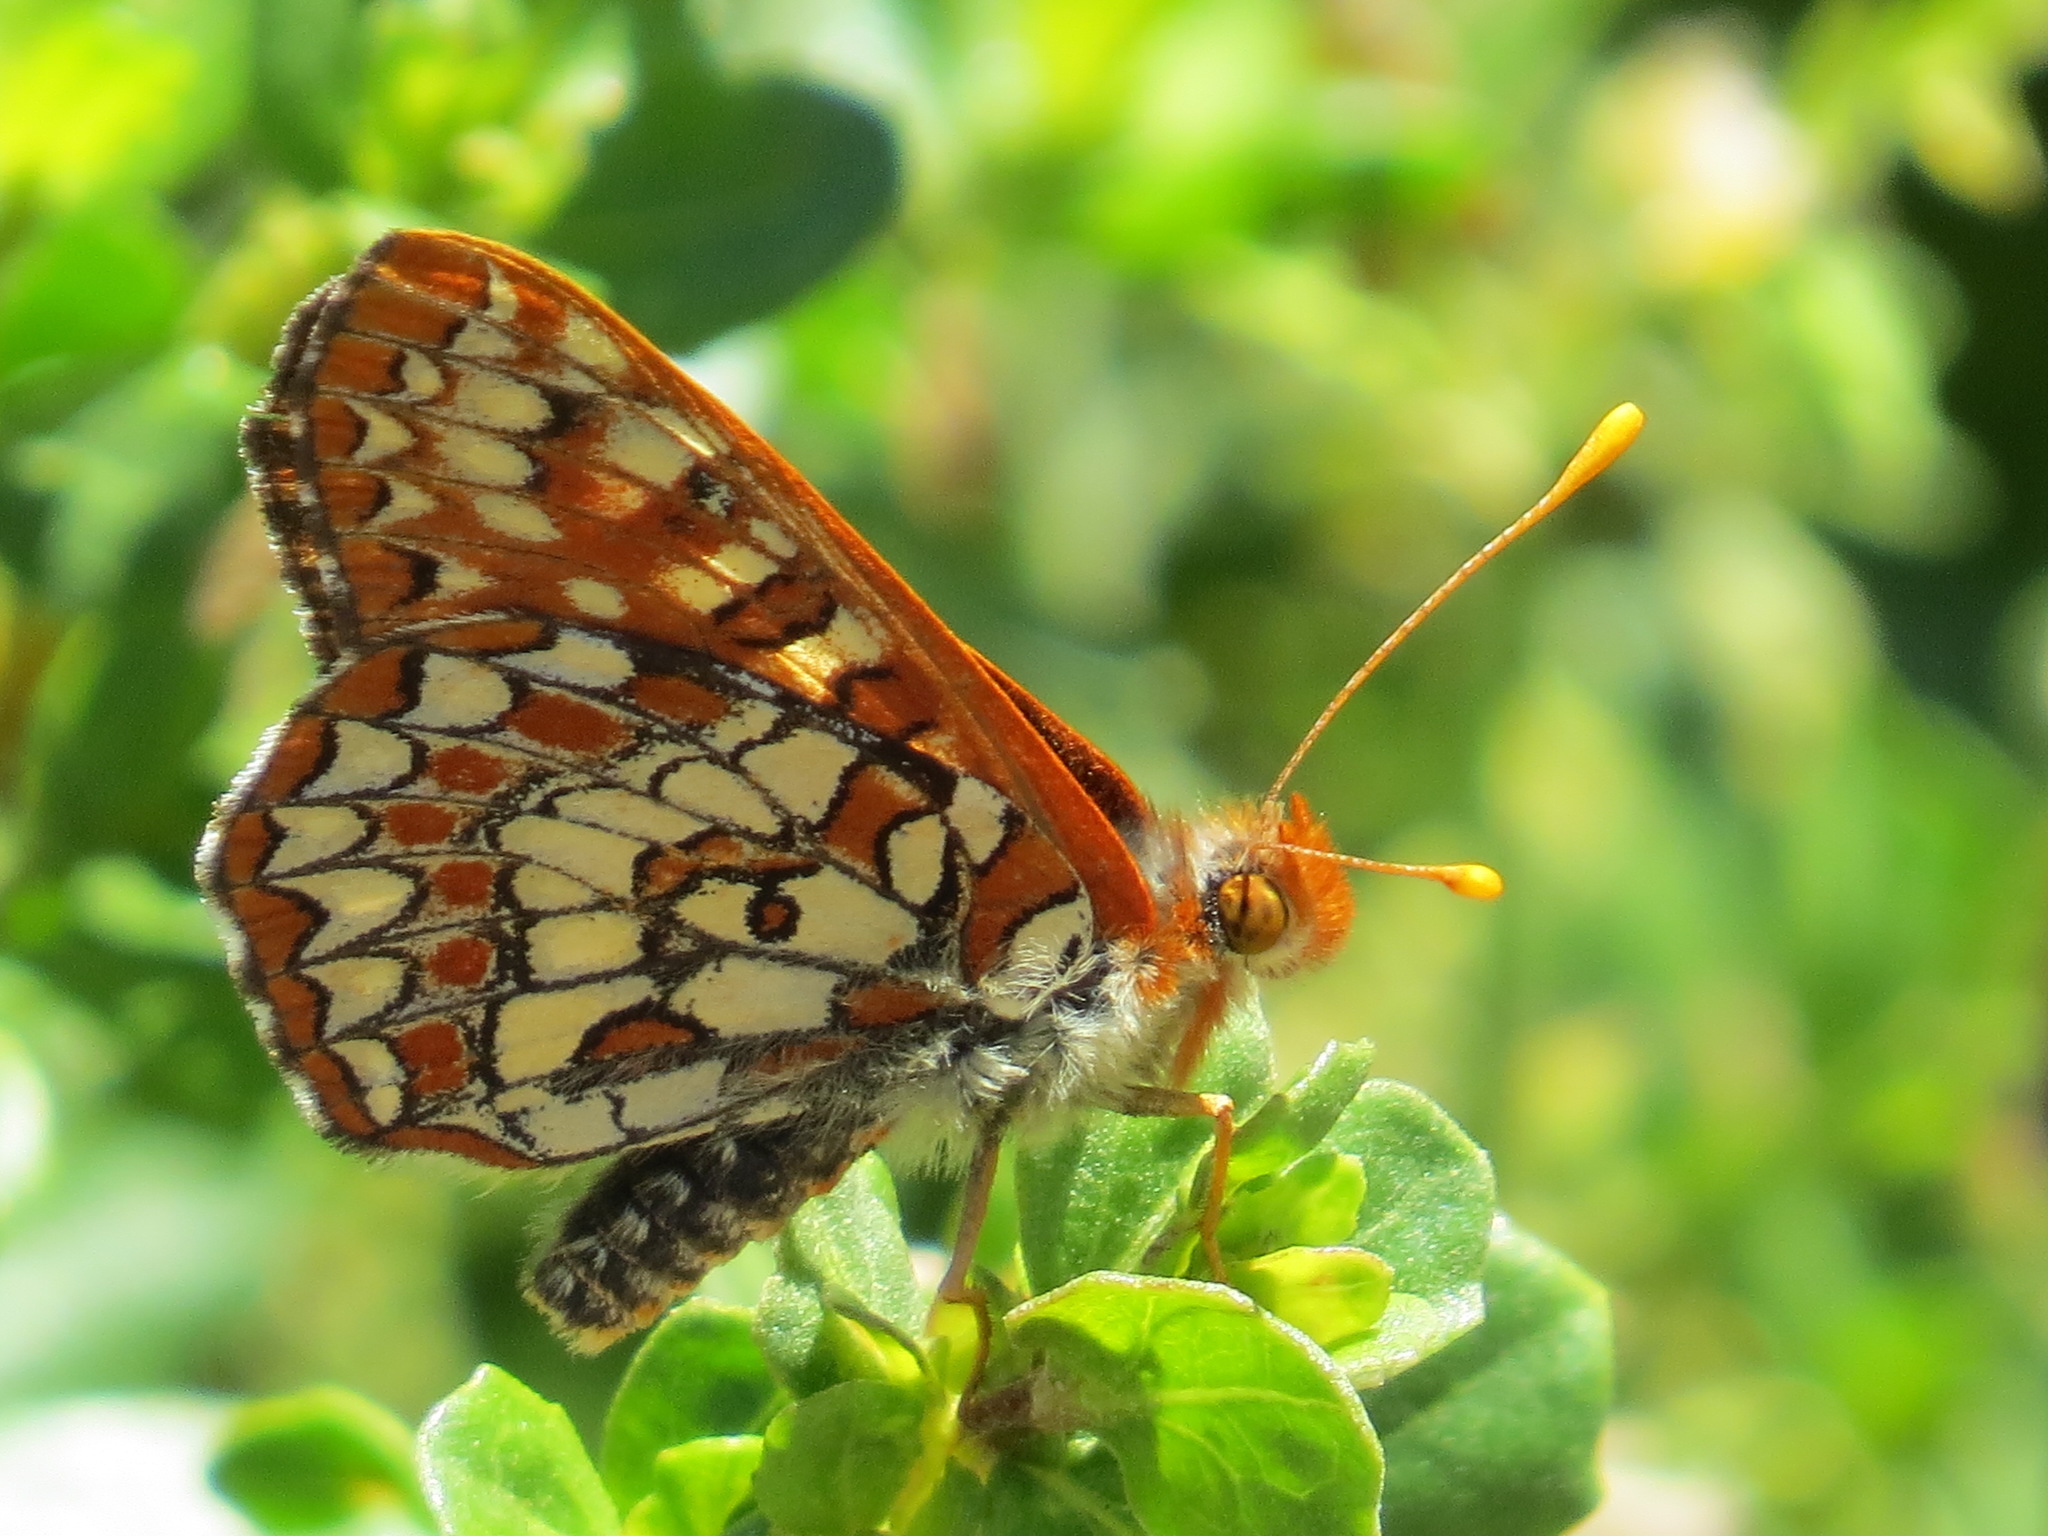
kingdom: Animalia
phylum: Arthropoda
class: Insecta
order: Lepidoptera
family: Nymphalidae
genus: Occidryas
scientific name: Occidryas chalcedona
